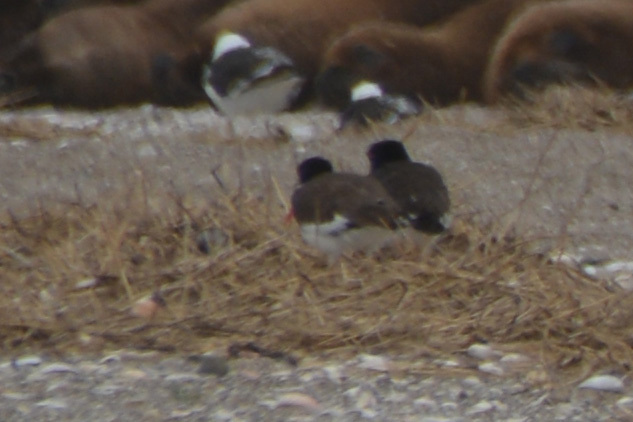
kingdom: Animalia
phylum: Chordata
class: Aves
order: Charadriiformes
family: Haematopodidae
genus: Haematopus
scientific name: Haematopus palliatus
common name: American oystercatcher
